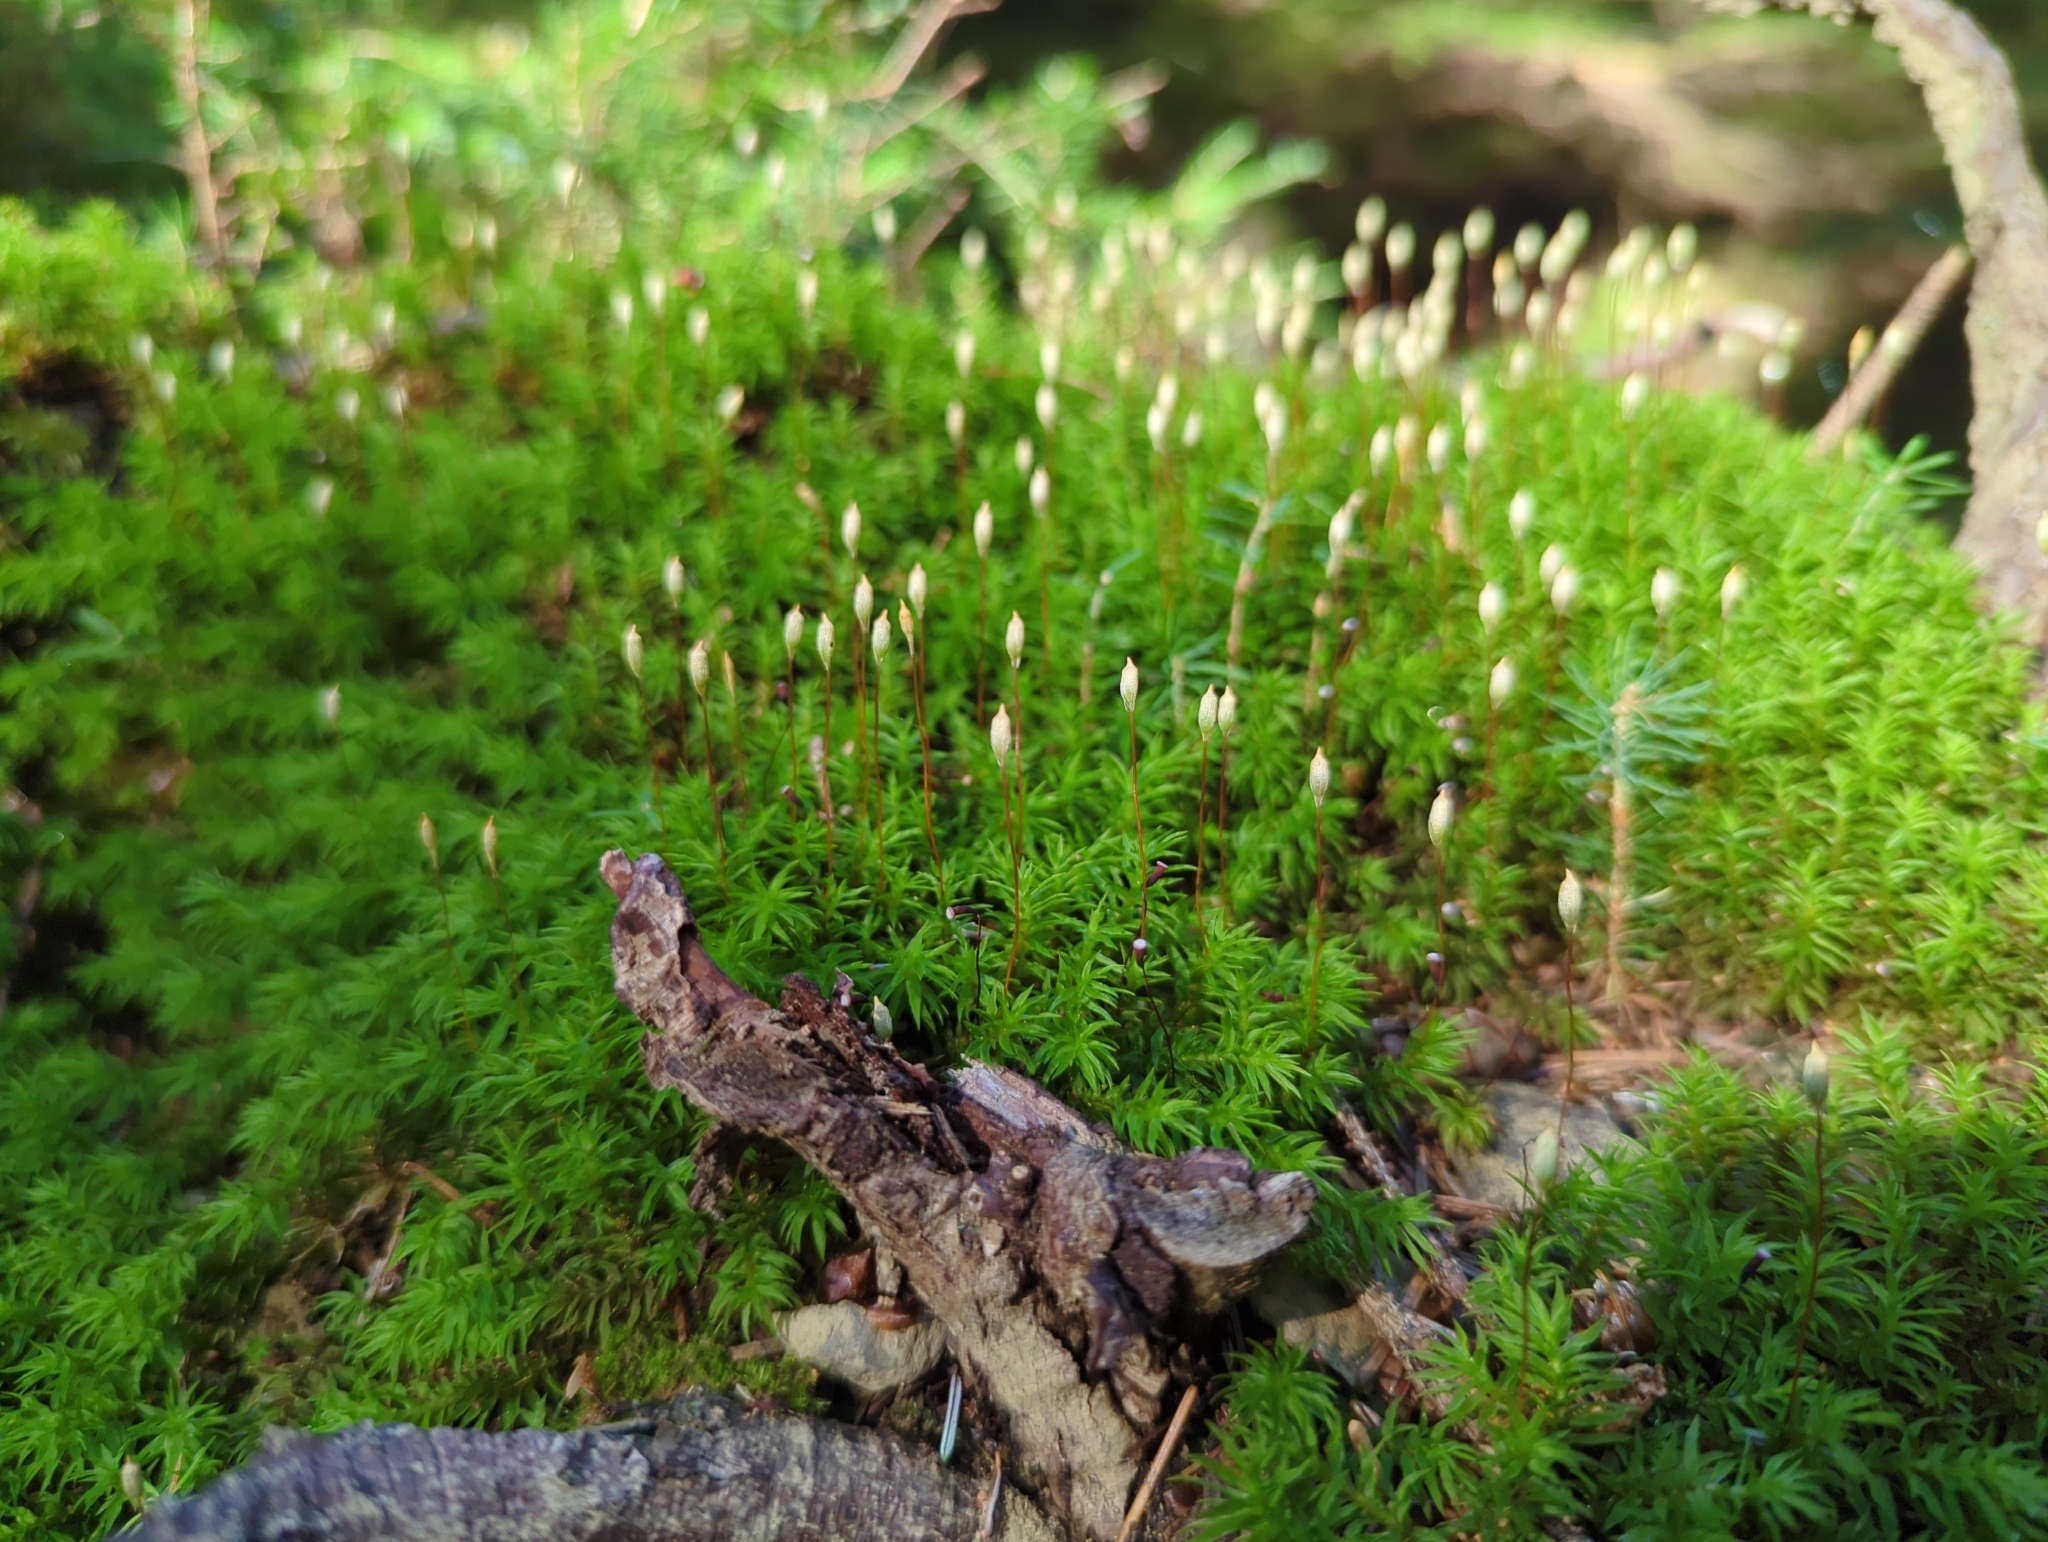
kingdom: Plantae
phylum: Bryophyta
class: Polytrichopsida
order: Polytrichales
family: Polytrichaceae
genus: Pogonatum
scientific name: Pogonatum contortum
